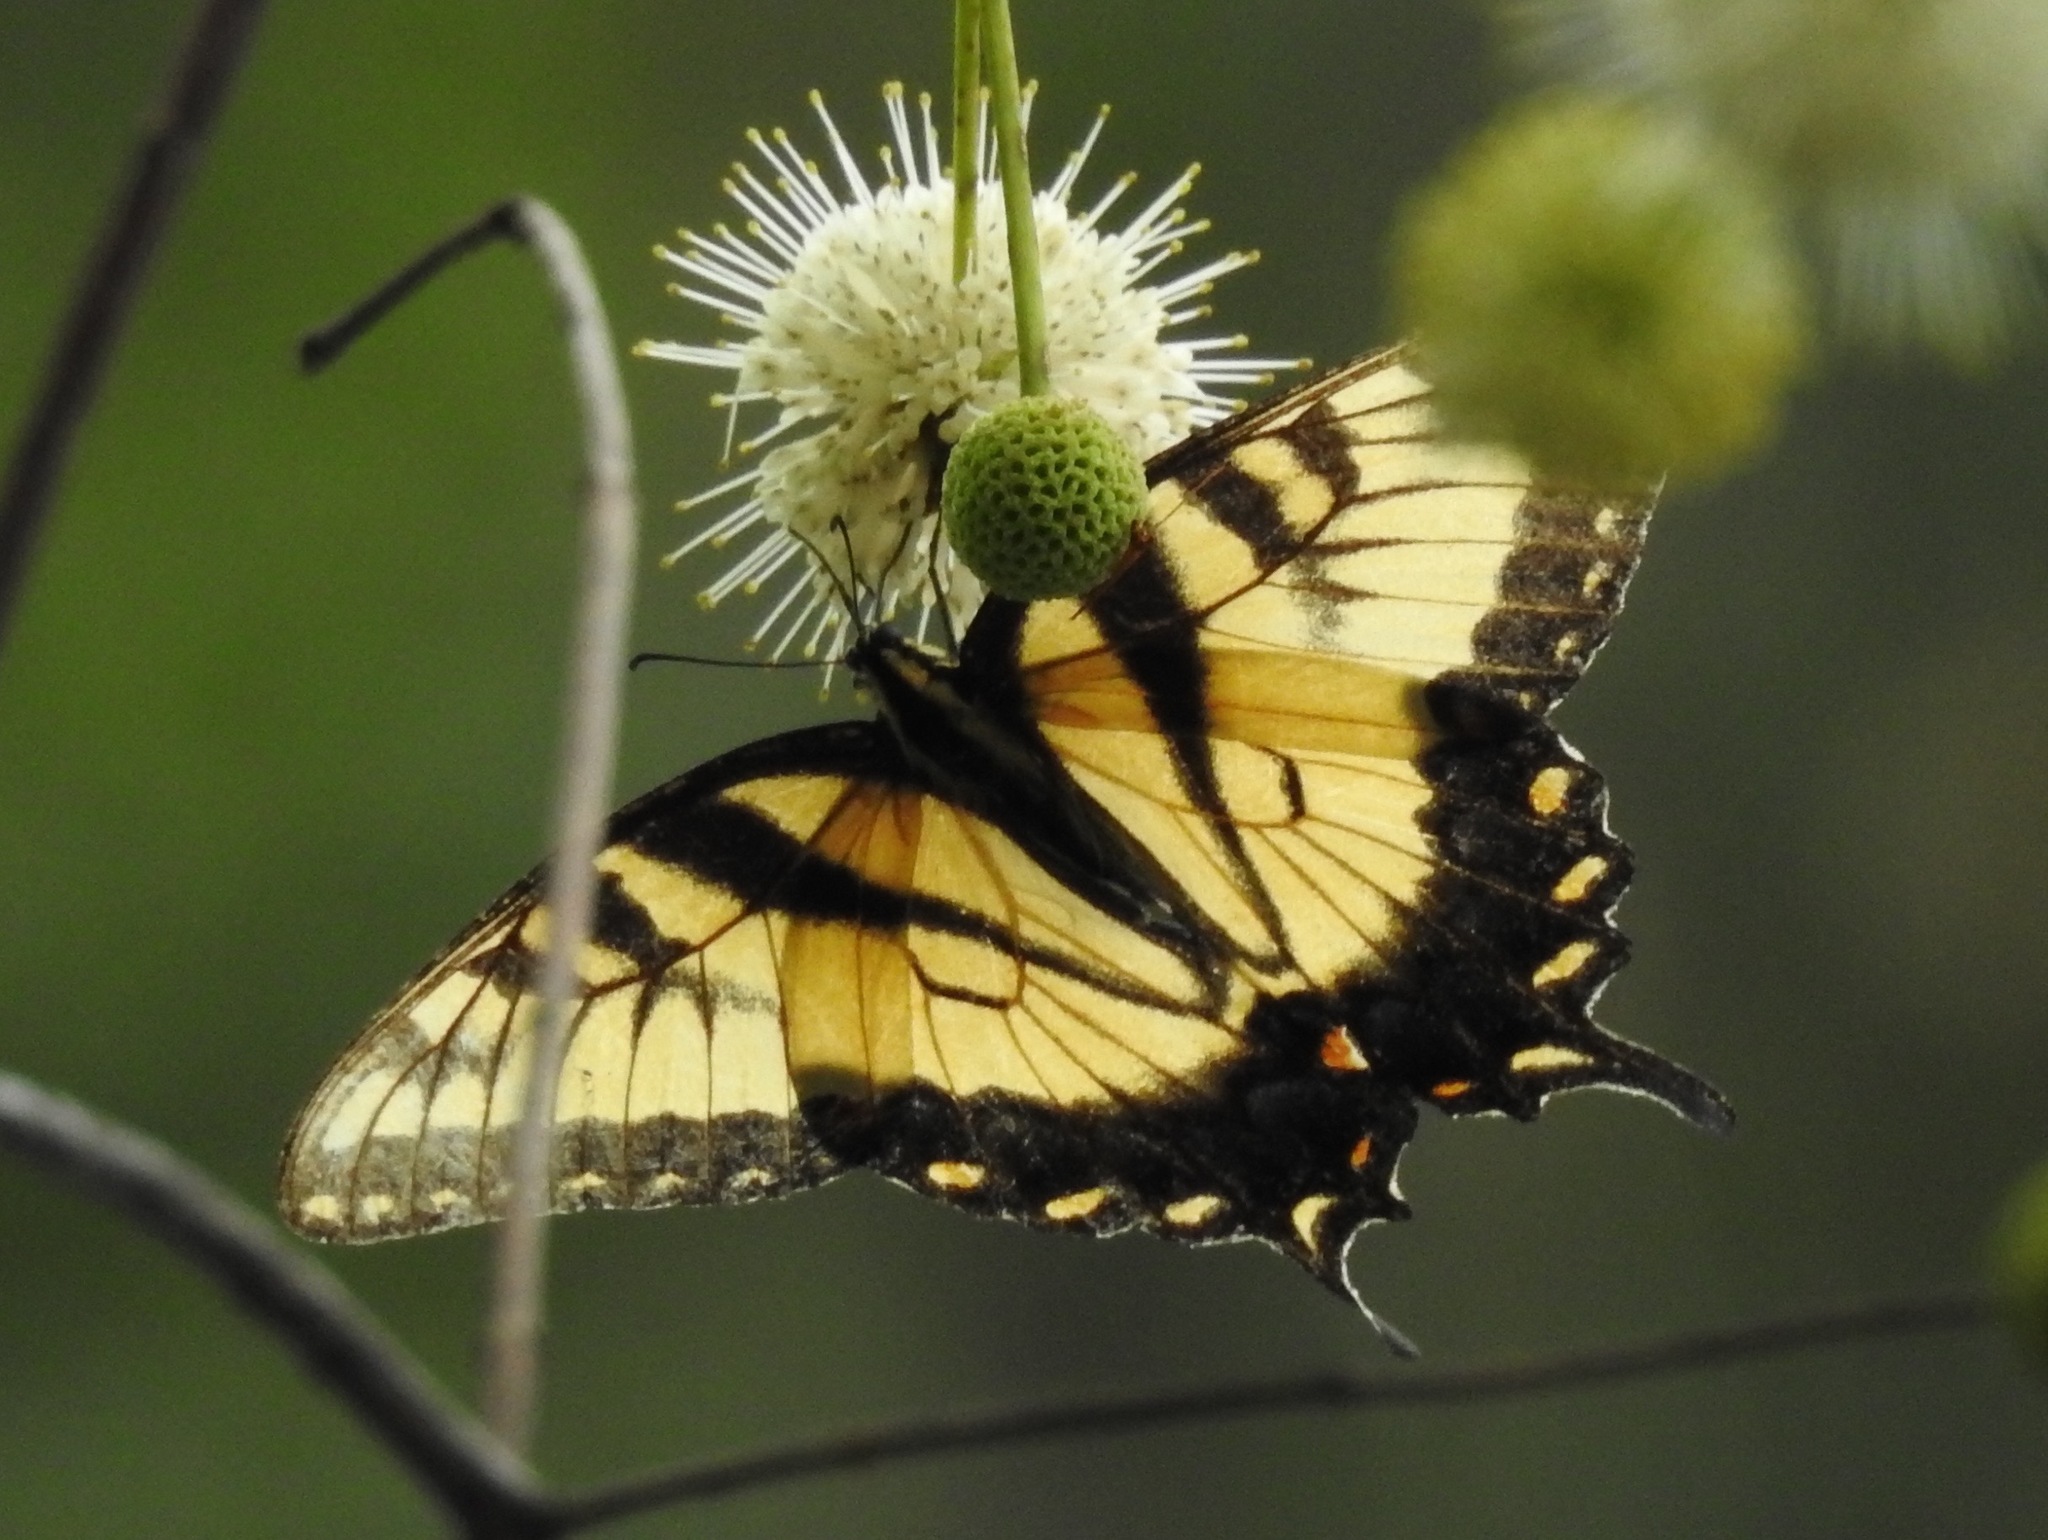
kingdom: Animalia
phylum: Arthropoda
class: Insecta
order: Lepidoptera
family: Papilionidae
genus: Papilio
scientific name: Papilio glaucus
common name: Tiger swallowtail
